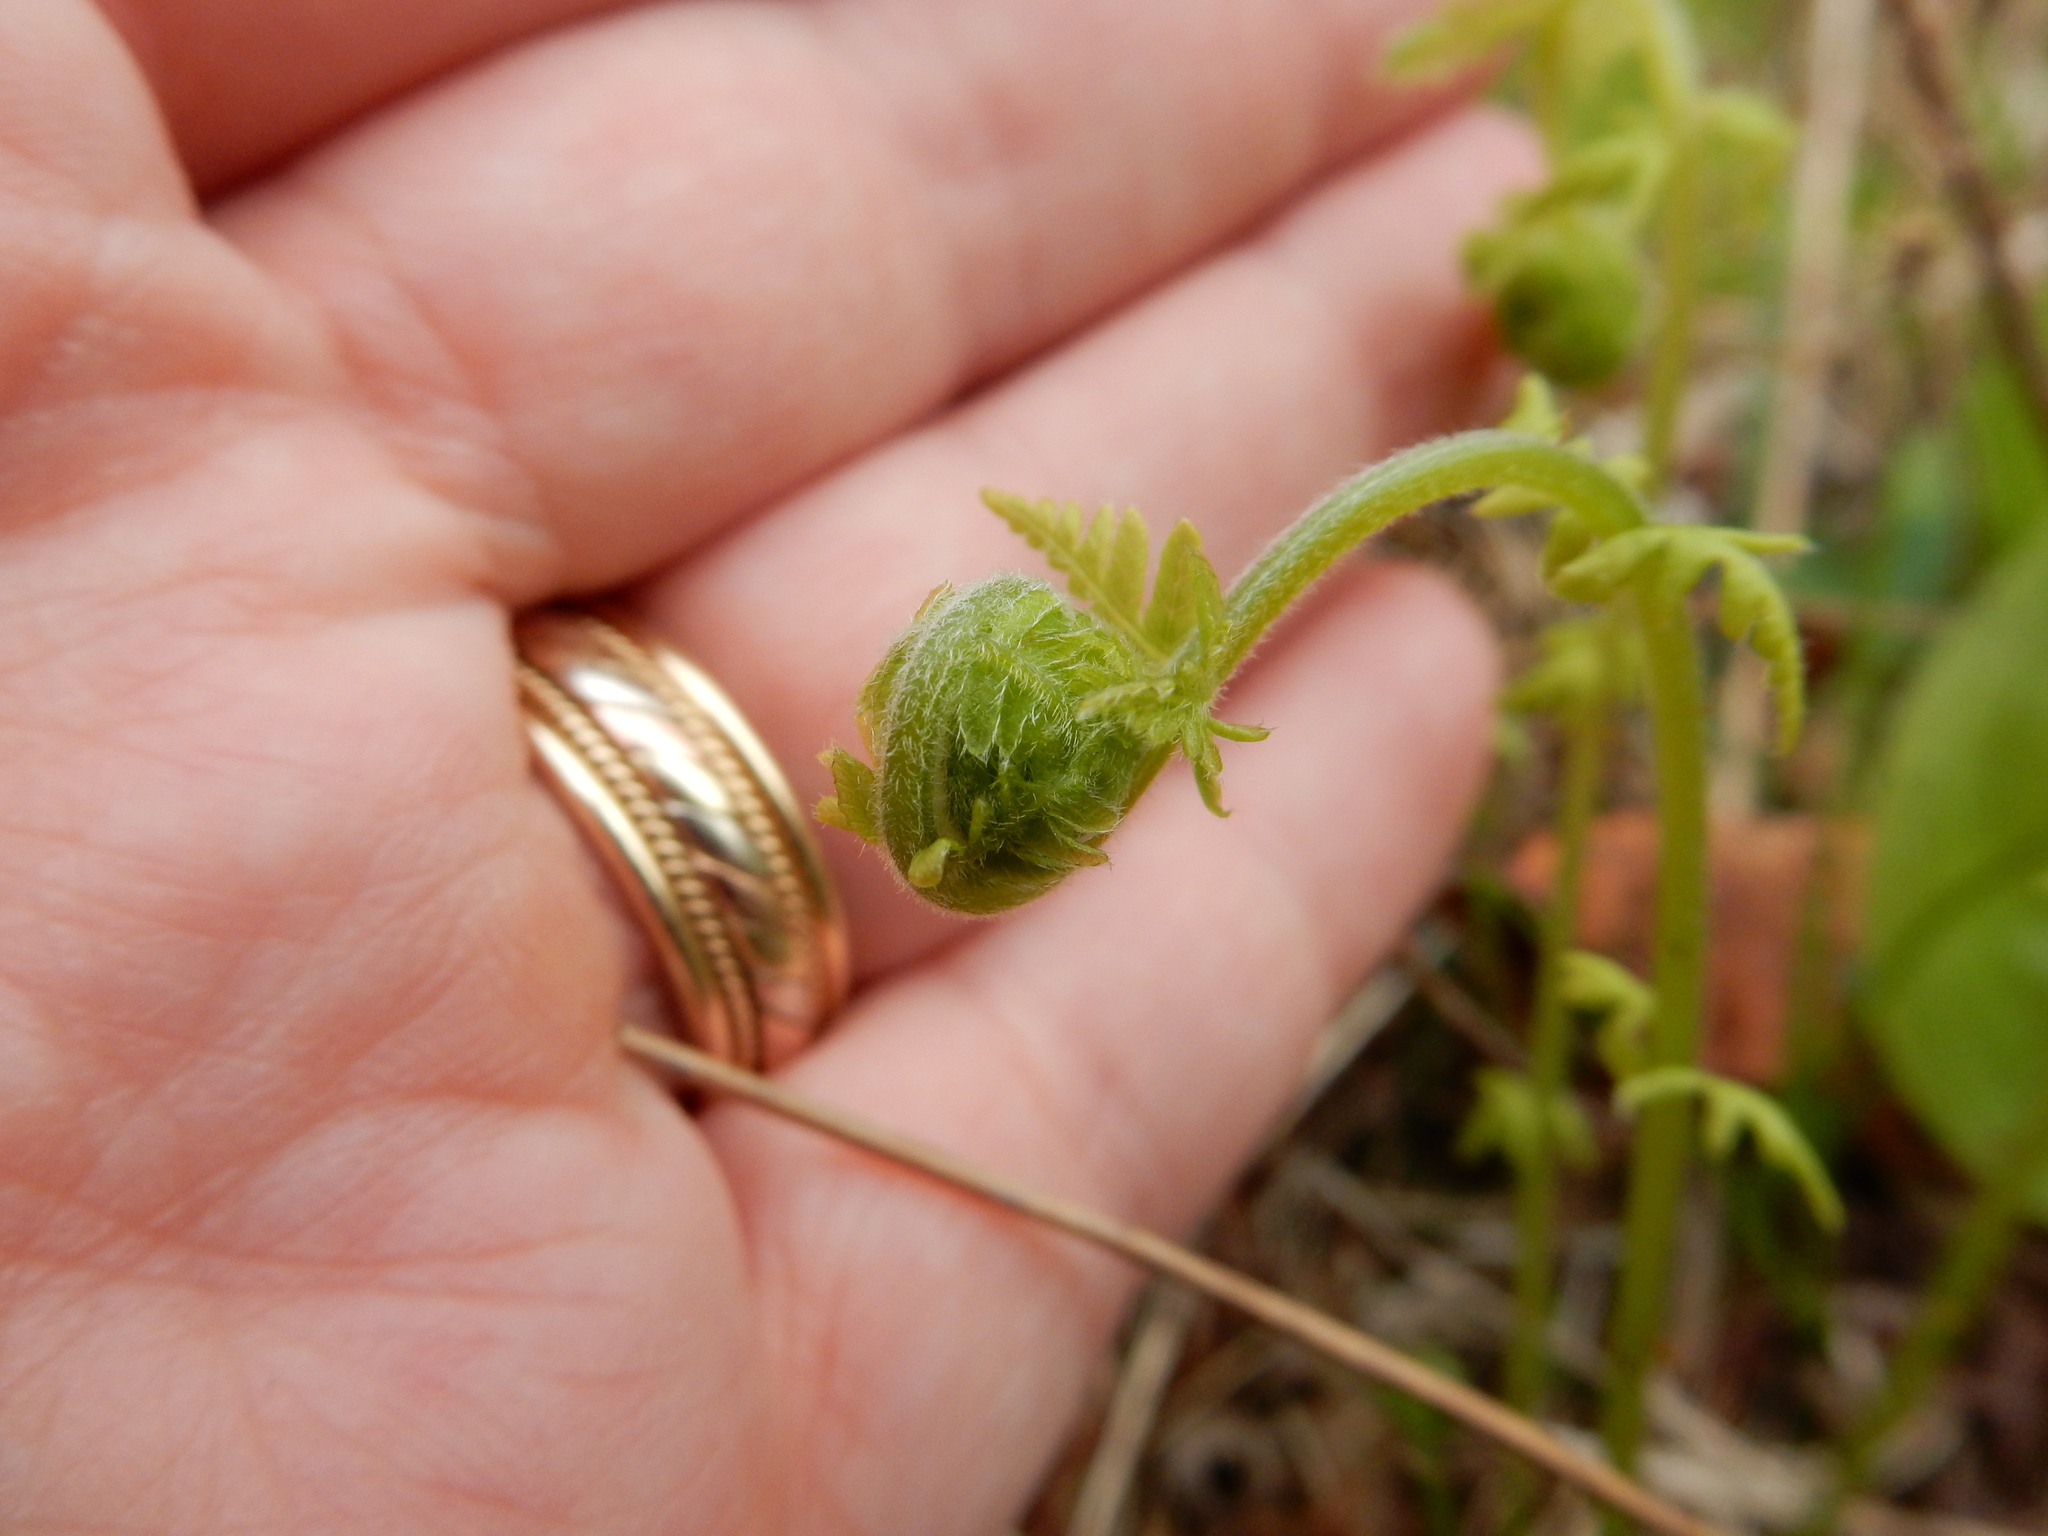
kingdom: Plantae
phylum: Tracheophyta
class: Polypodiopsida
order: Polypodiales
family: Dennstaedtiaceae
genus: Sitobolium
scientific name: Sitobolium punctilobum
